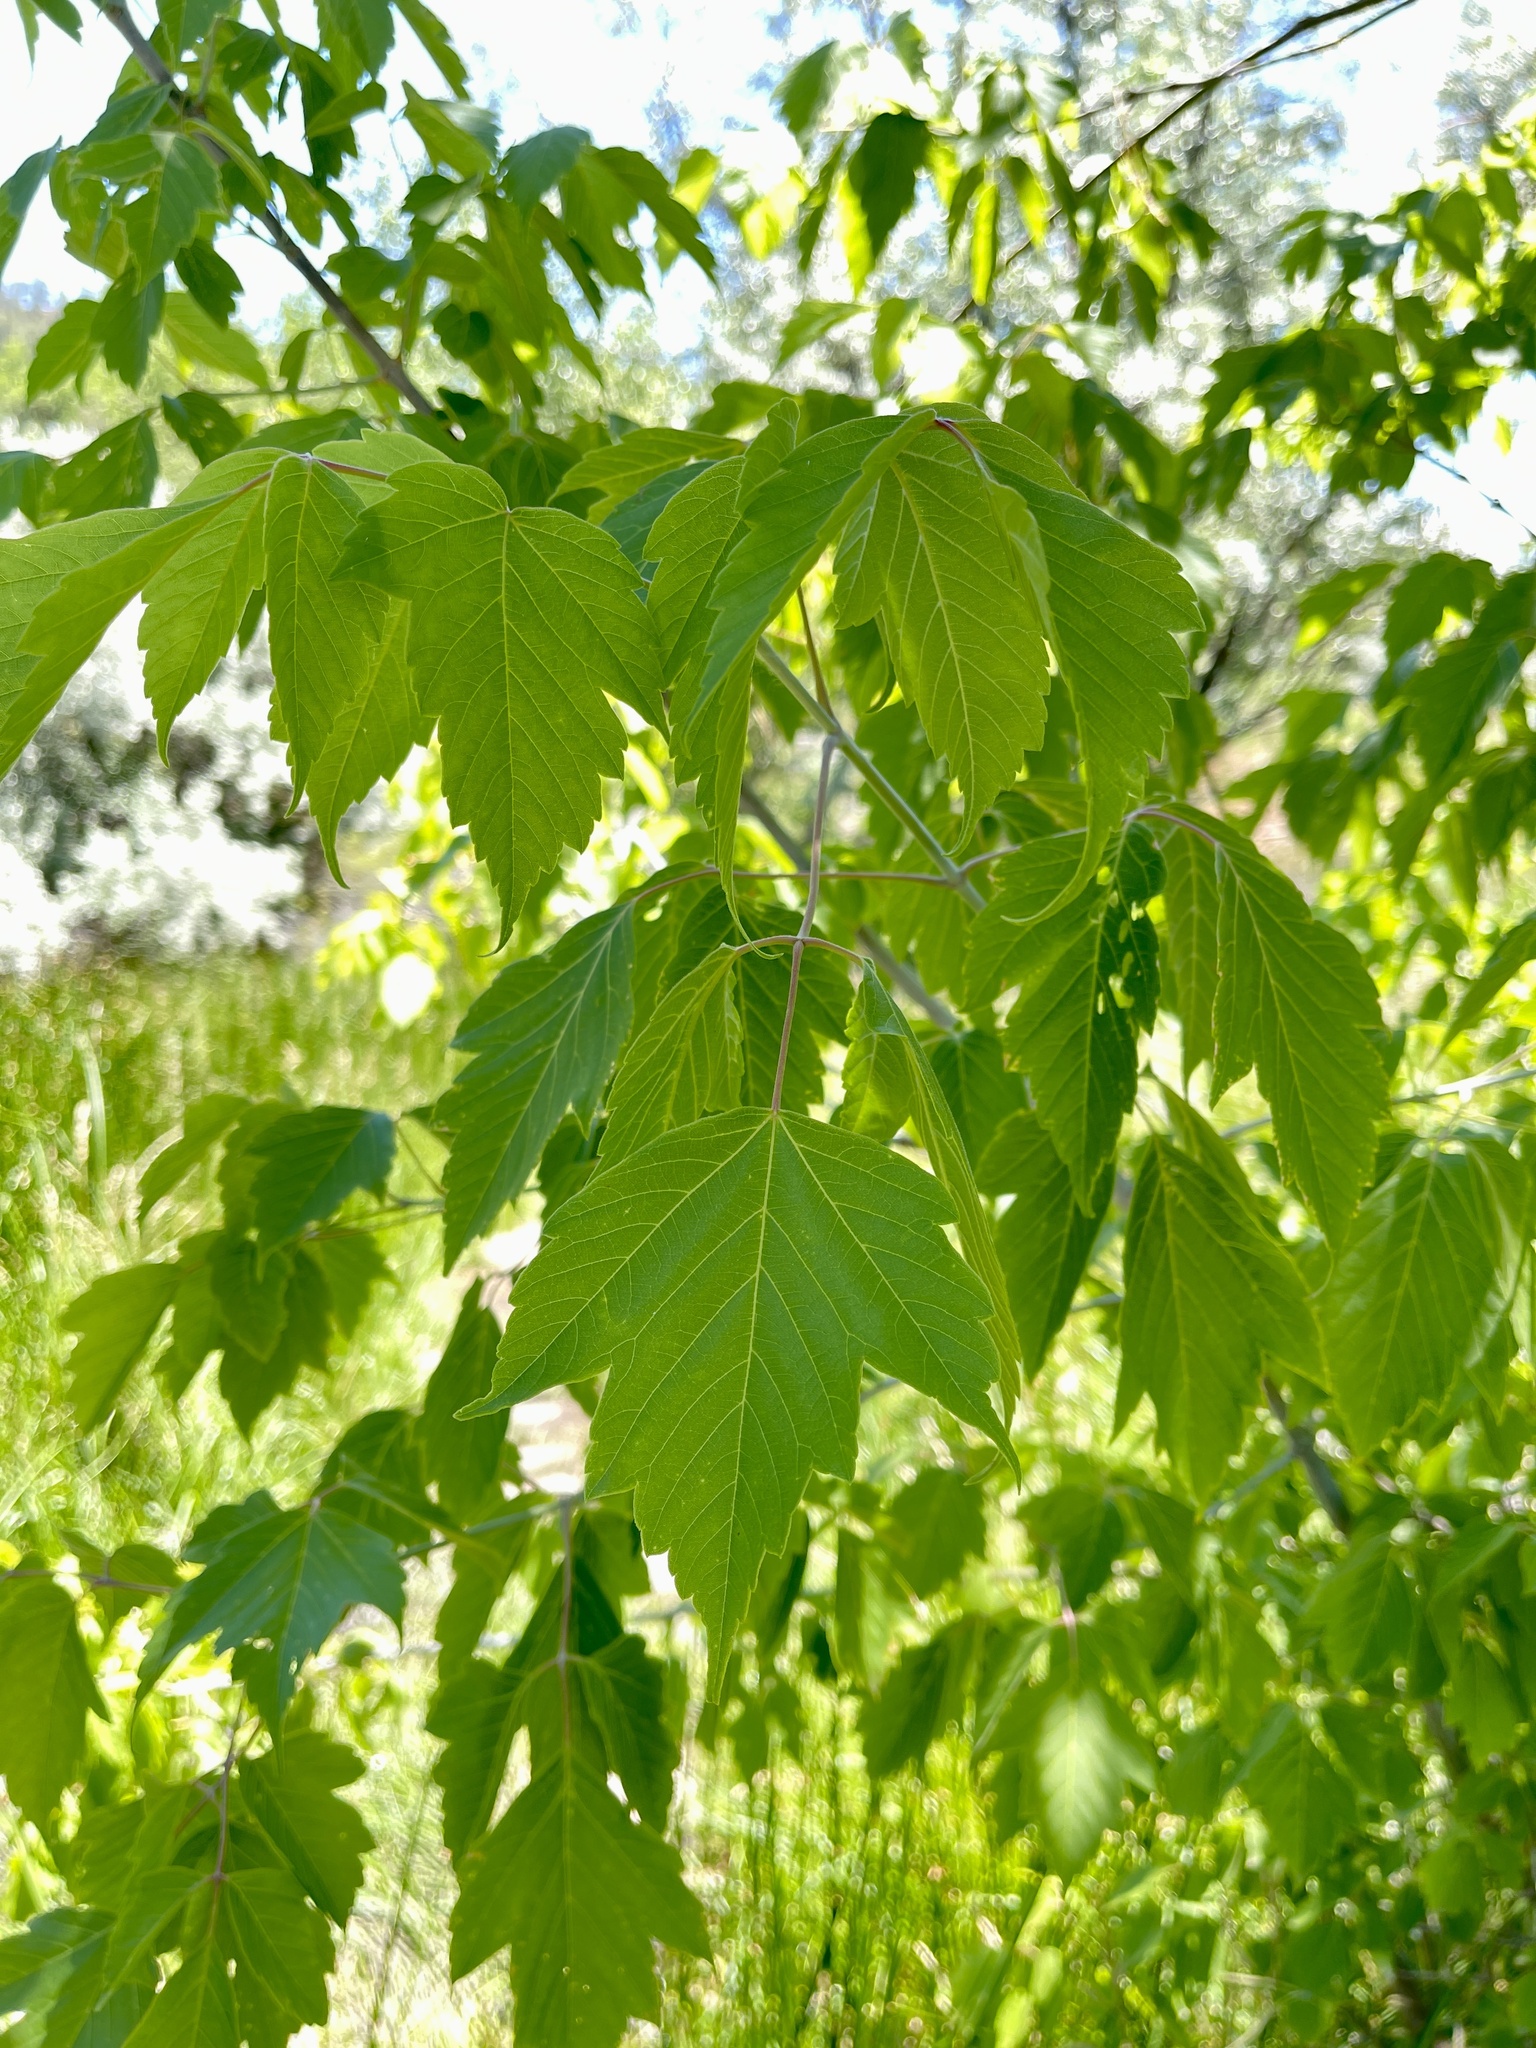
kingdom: Plantae
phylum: Tracheophyta
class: Magnoliopsida
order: Sapindales
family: Sapindaceae
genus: Acer
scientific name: Acer negundo
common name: Ashleaf maple
